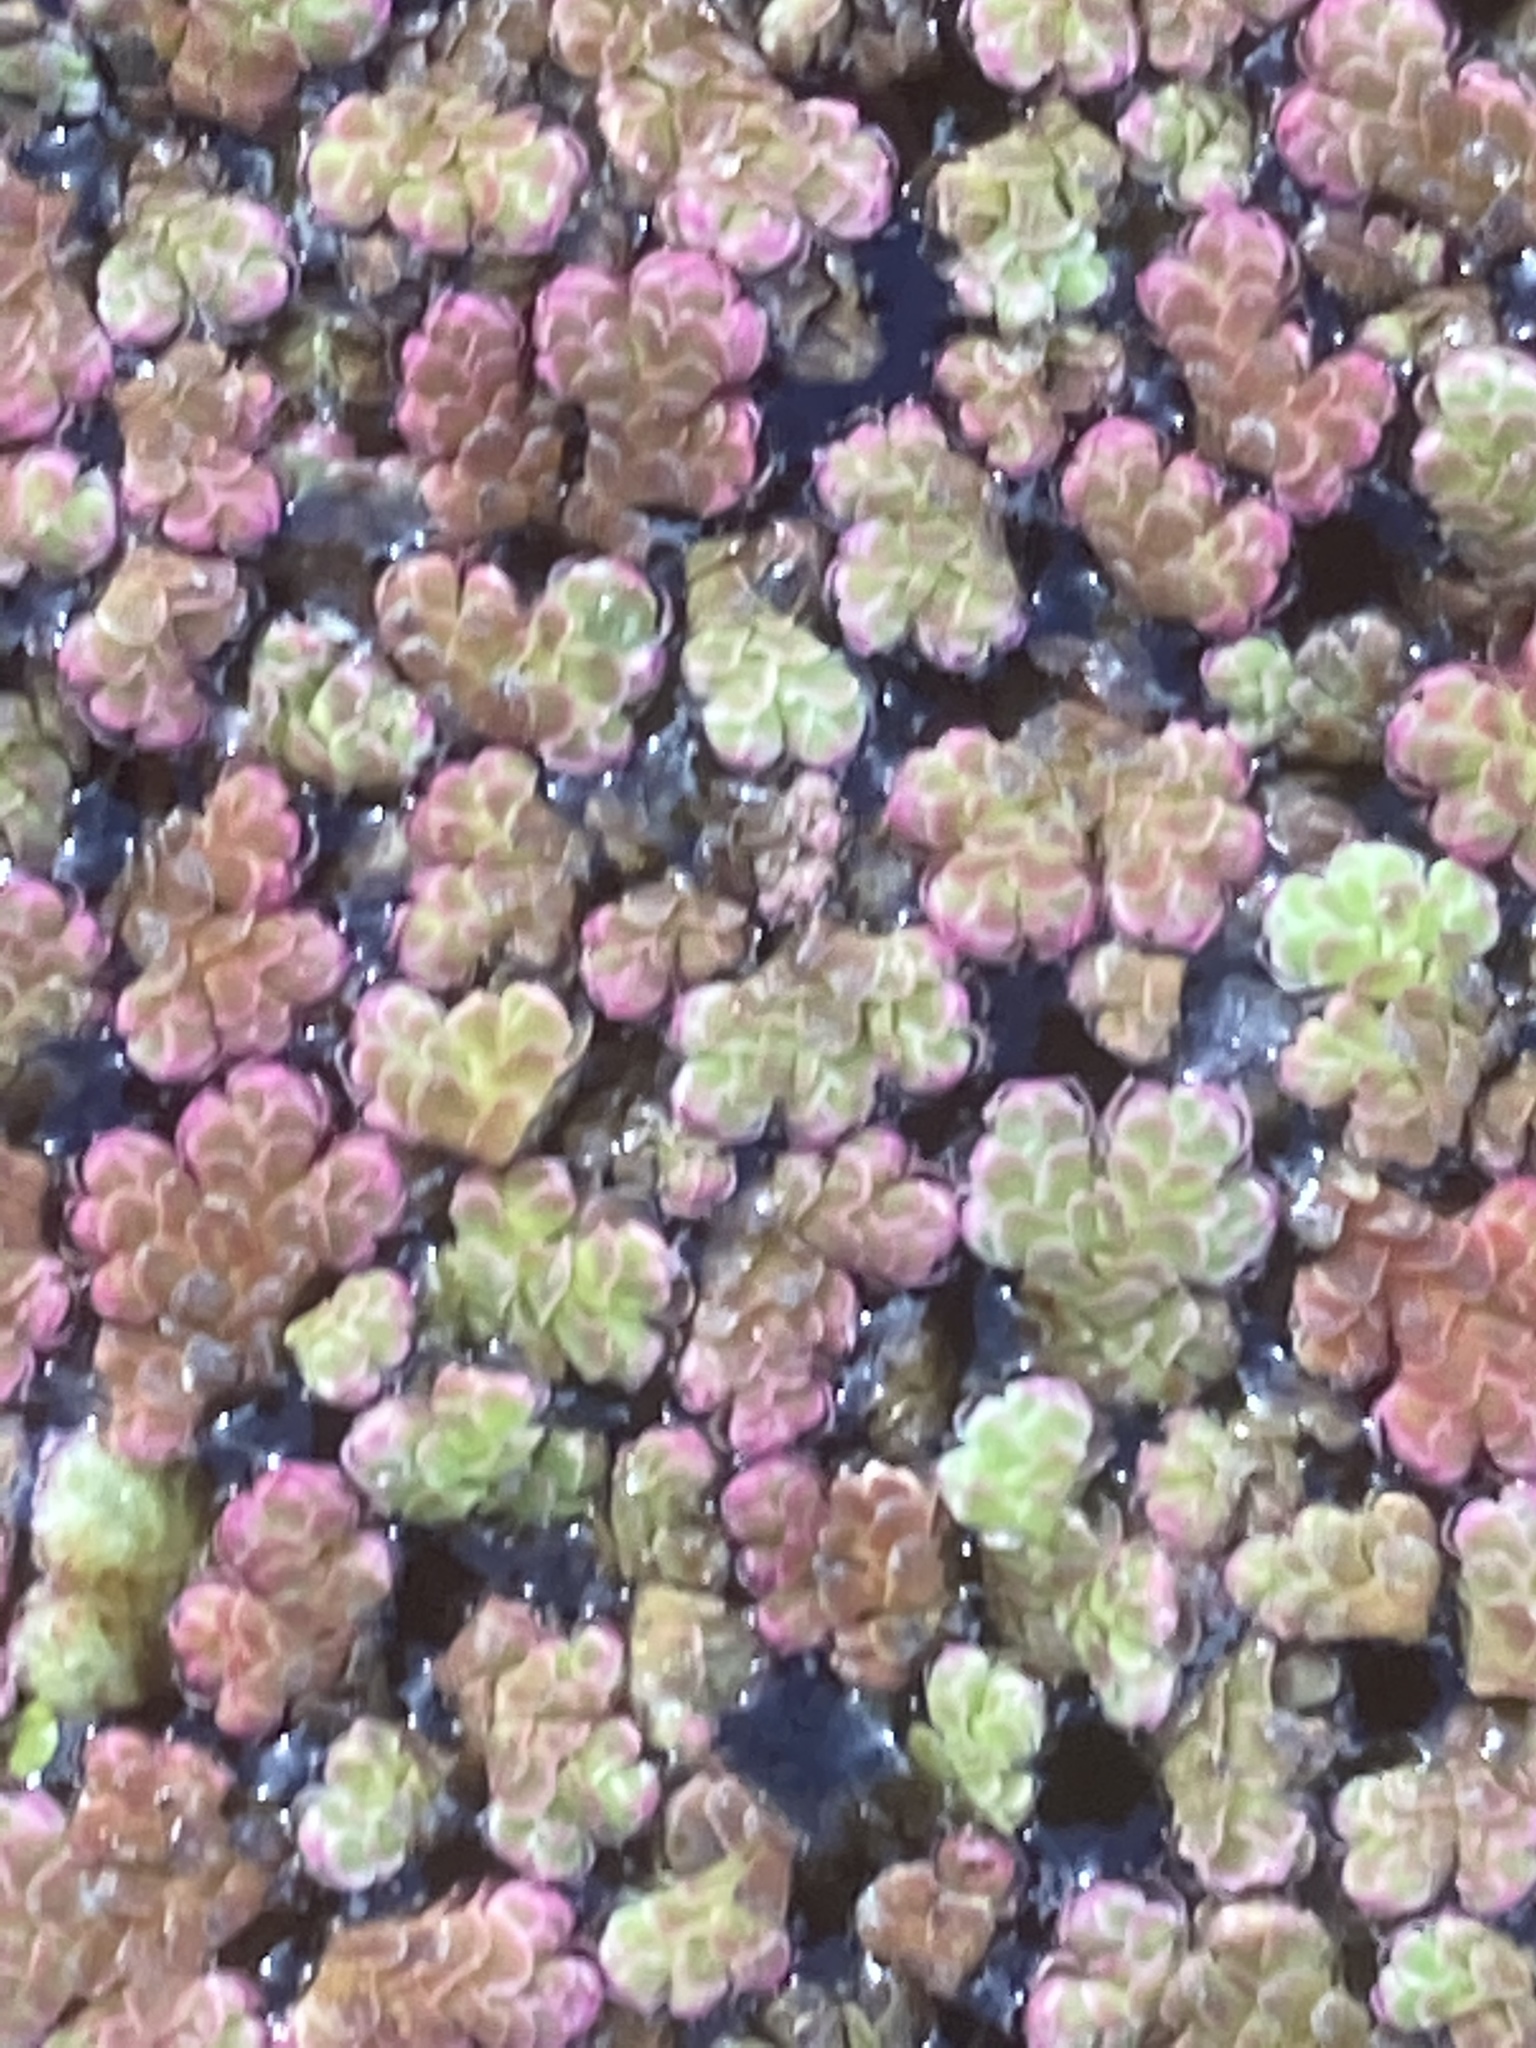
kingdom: Plantae
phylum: Tracheophyta
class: Polypodiopsida
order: Salviniales
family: Salviniaceae
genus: Azolla
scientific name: Azolla filiculoides
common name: Water fern
